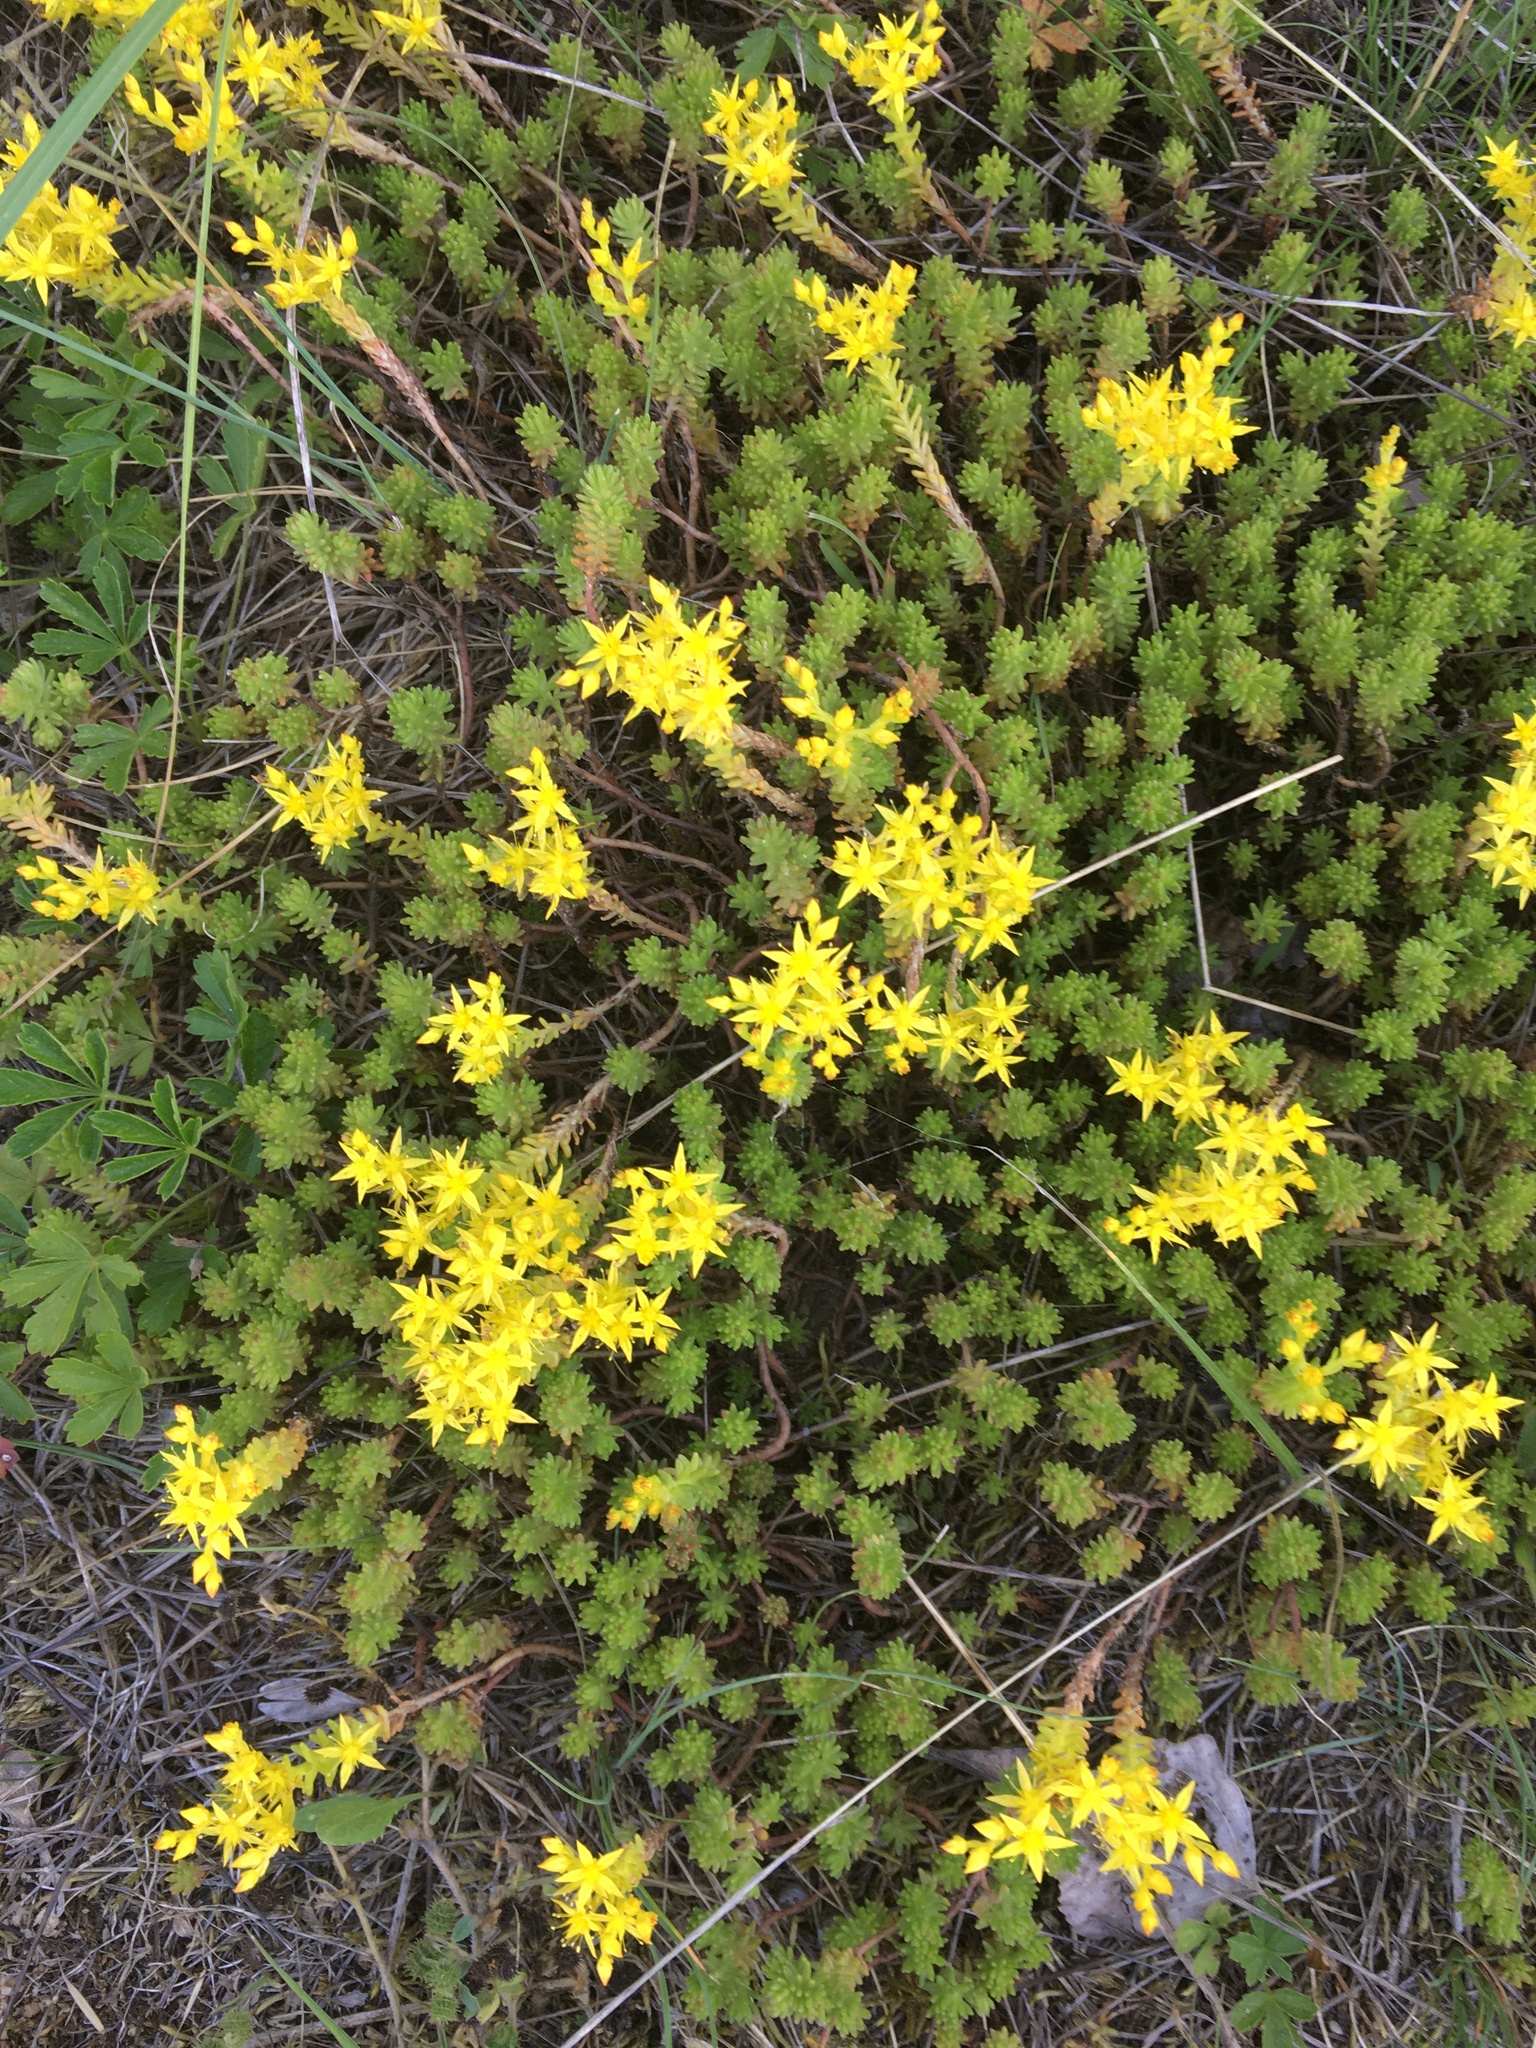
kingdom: Plantae
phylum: Tracheophyta
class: Magnoliopsida
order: Saxifragales
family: Crassulaceae
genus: Sedum
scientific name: Sedum sexangulare
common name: Tasteless stonecrop
